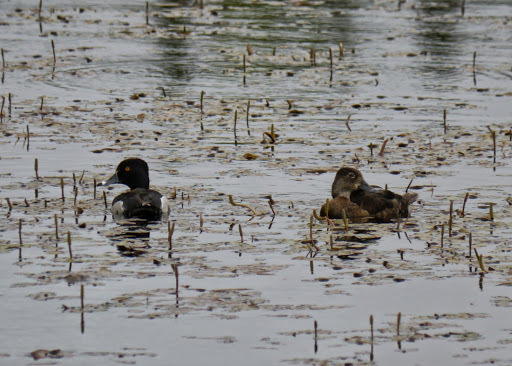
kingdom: Animalia
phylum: Chordata
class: Aves
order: Anseriformes
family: Anatidae
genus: Aythya
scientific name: Aythya collaris
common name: Ring-necked duck
